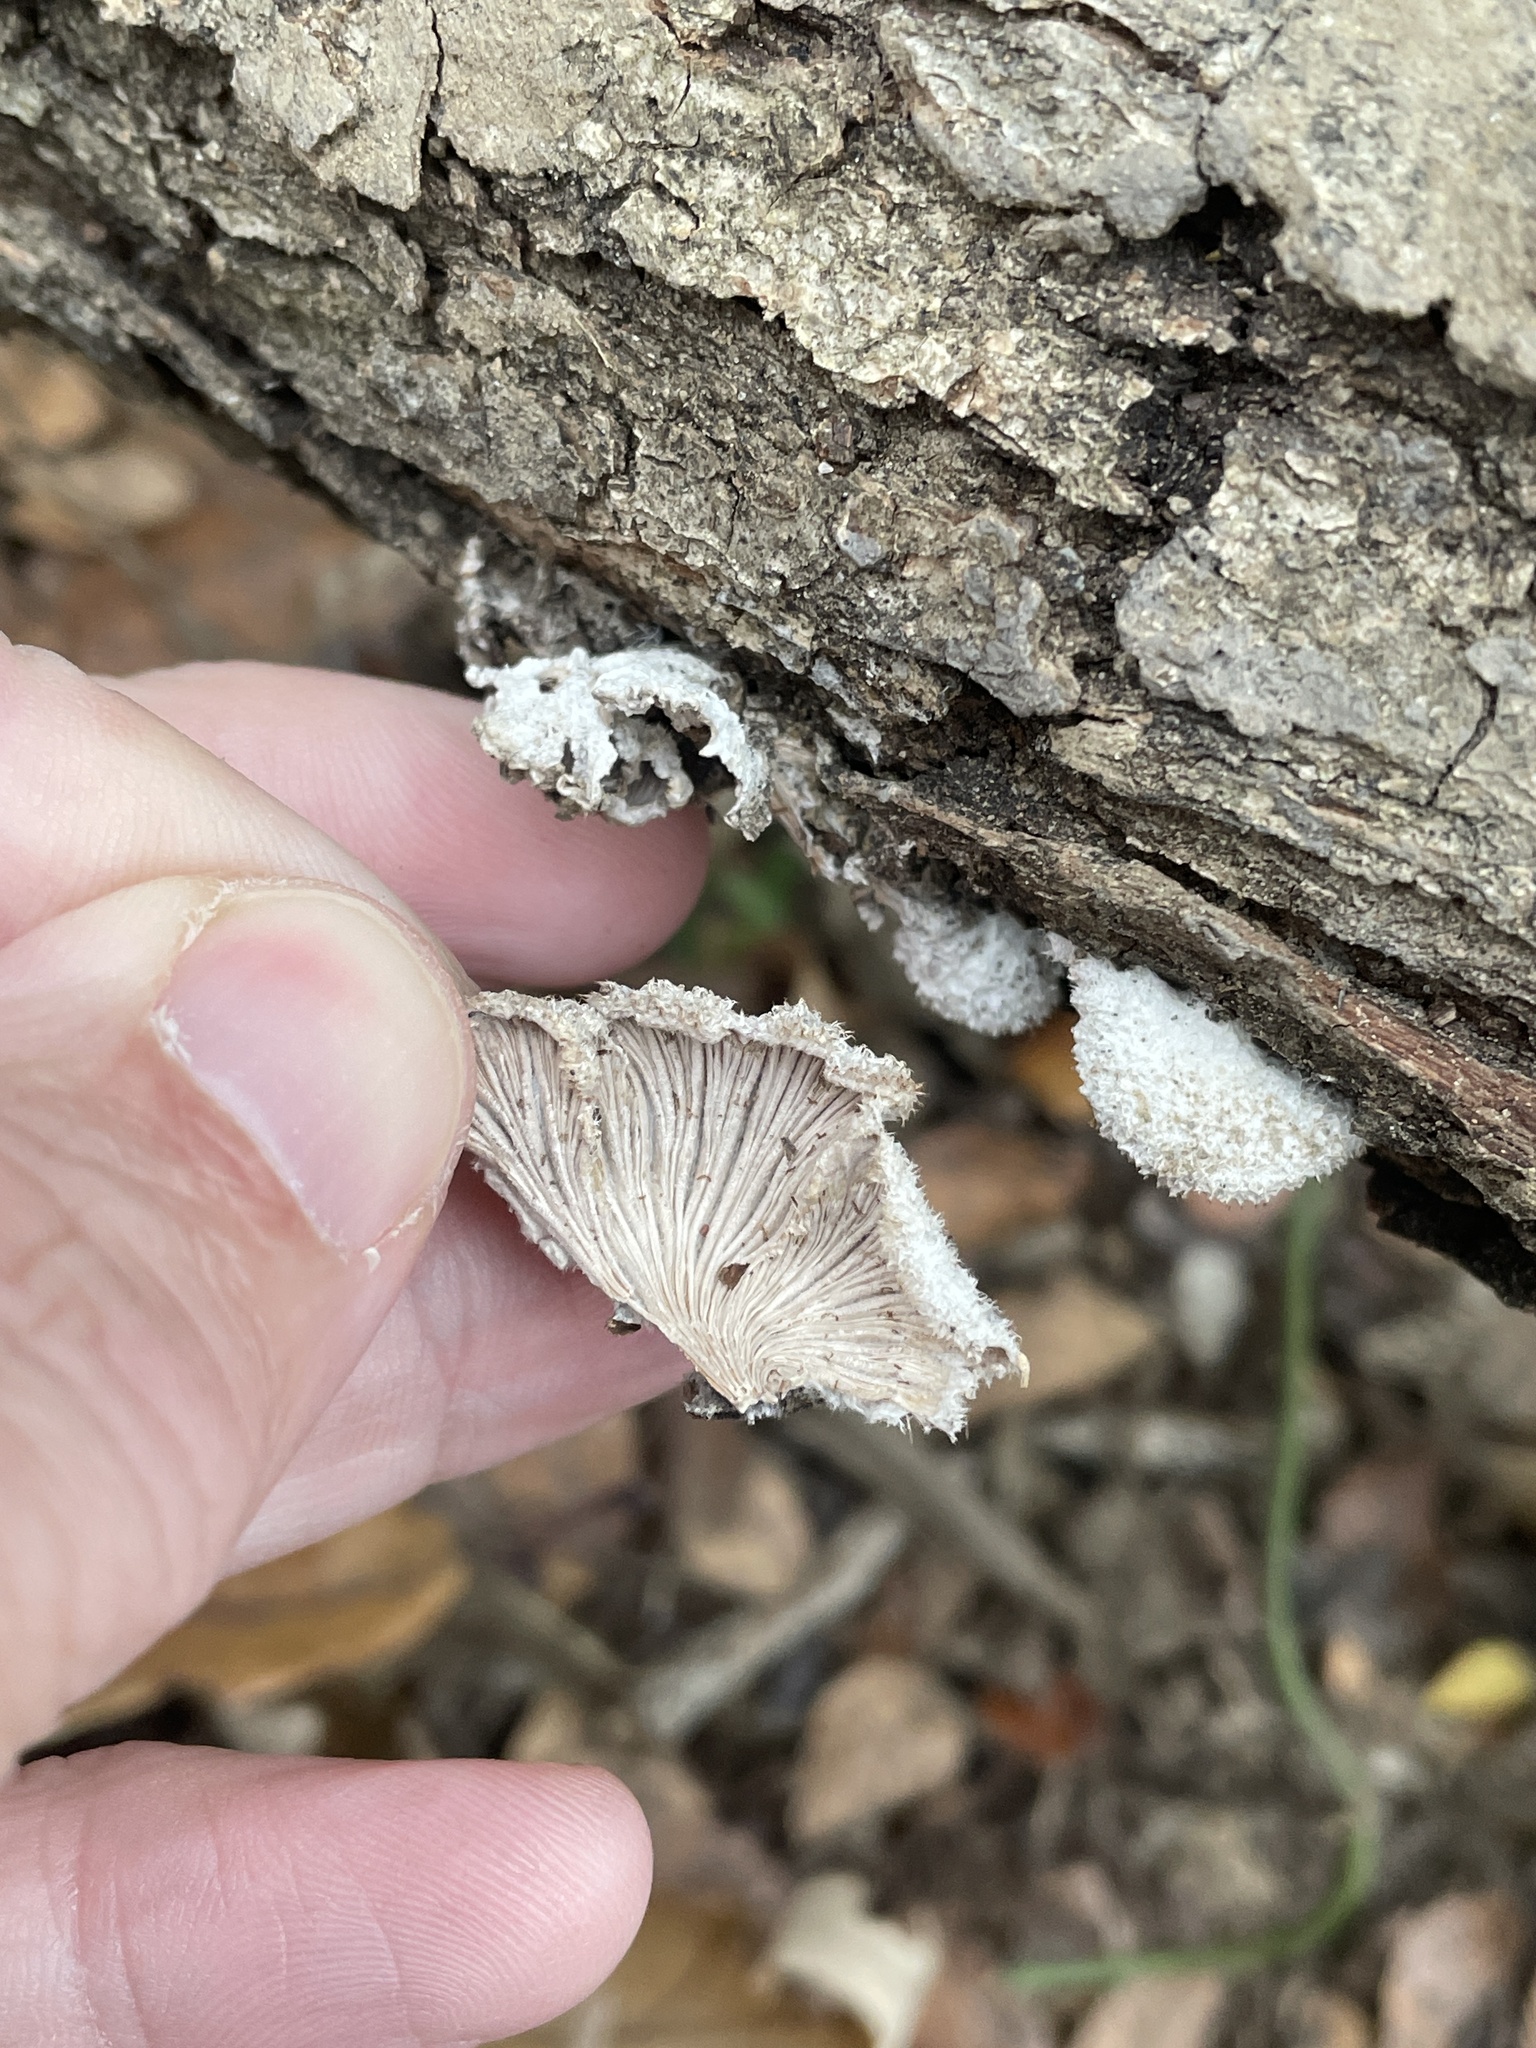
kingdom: Fungi
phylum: Basidiomycota
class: Agaricomycetes
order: Agaricales
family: Schizophyllaceae
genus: Schizophyllum
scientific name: Schizophyllum commune
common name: Common porecrust
